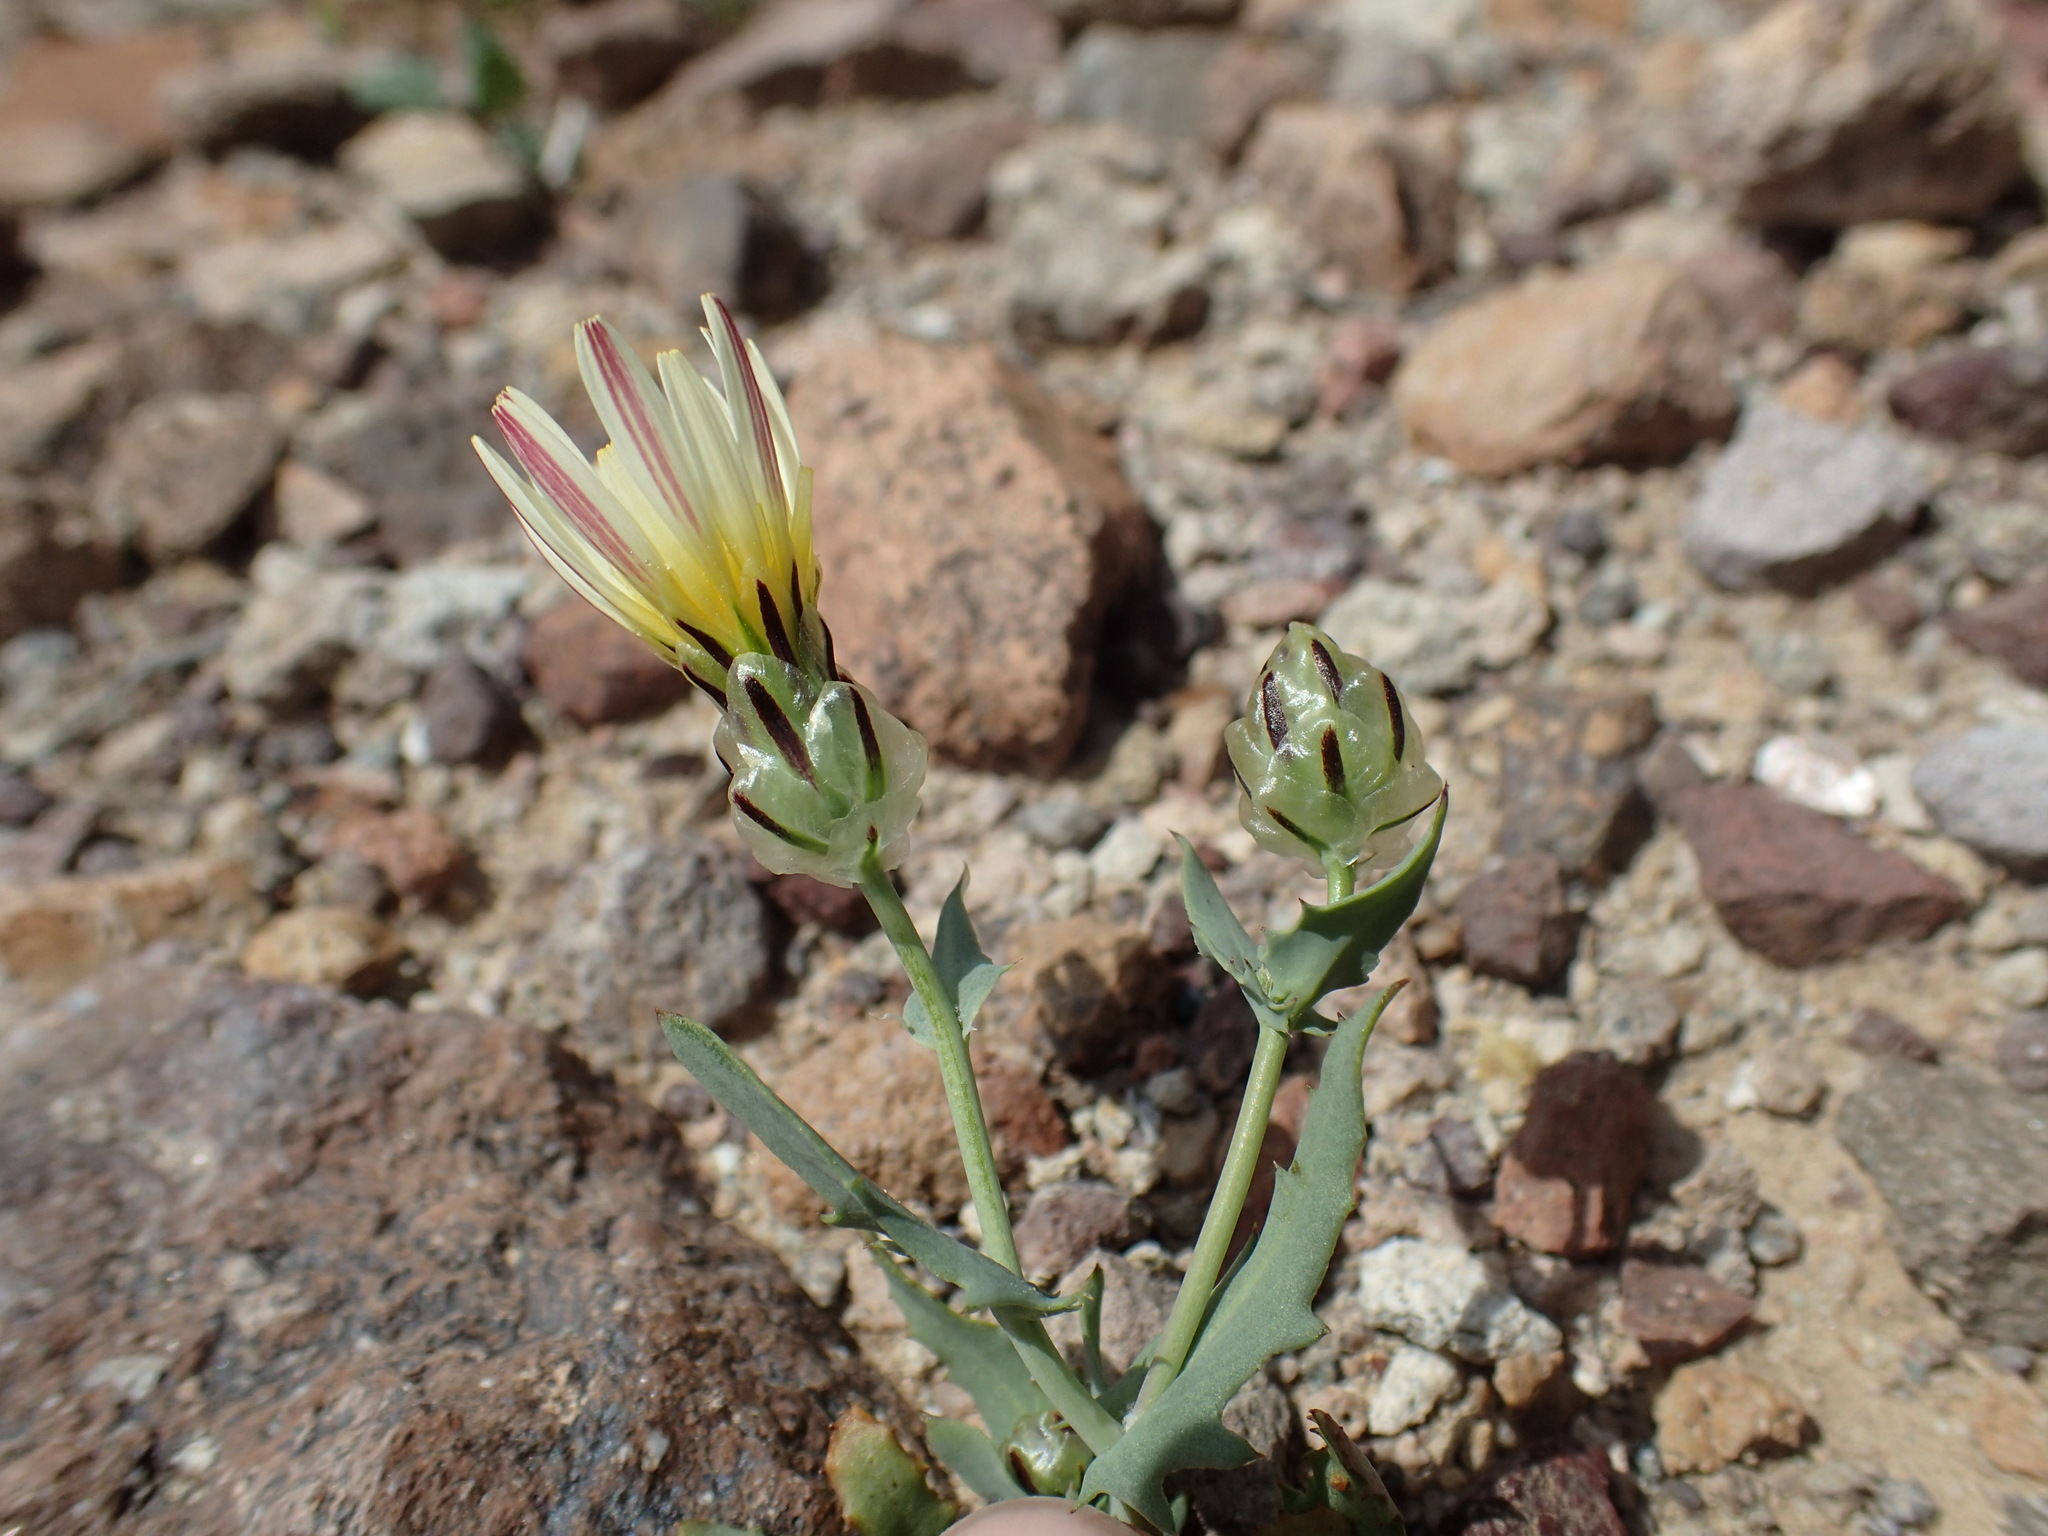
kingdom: Plantae
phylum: Tracheophyta
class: Magnoliopsida
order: Asterales
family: Asteraceae
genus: Malacothrix
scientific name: Malacothrix coulteri
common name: Snake's-head
